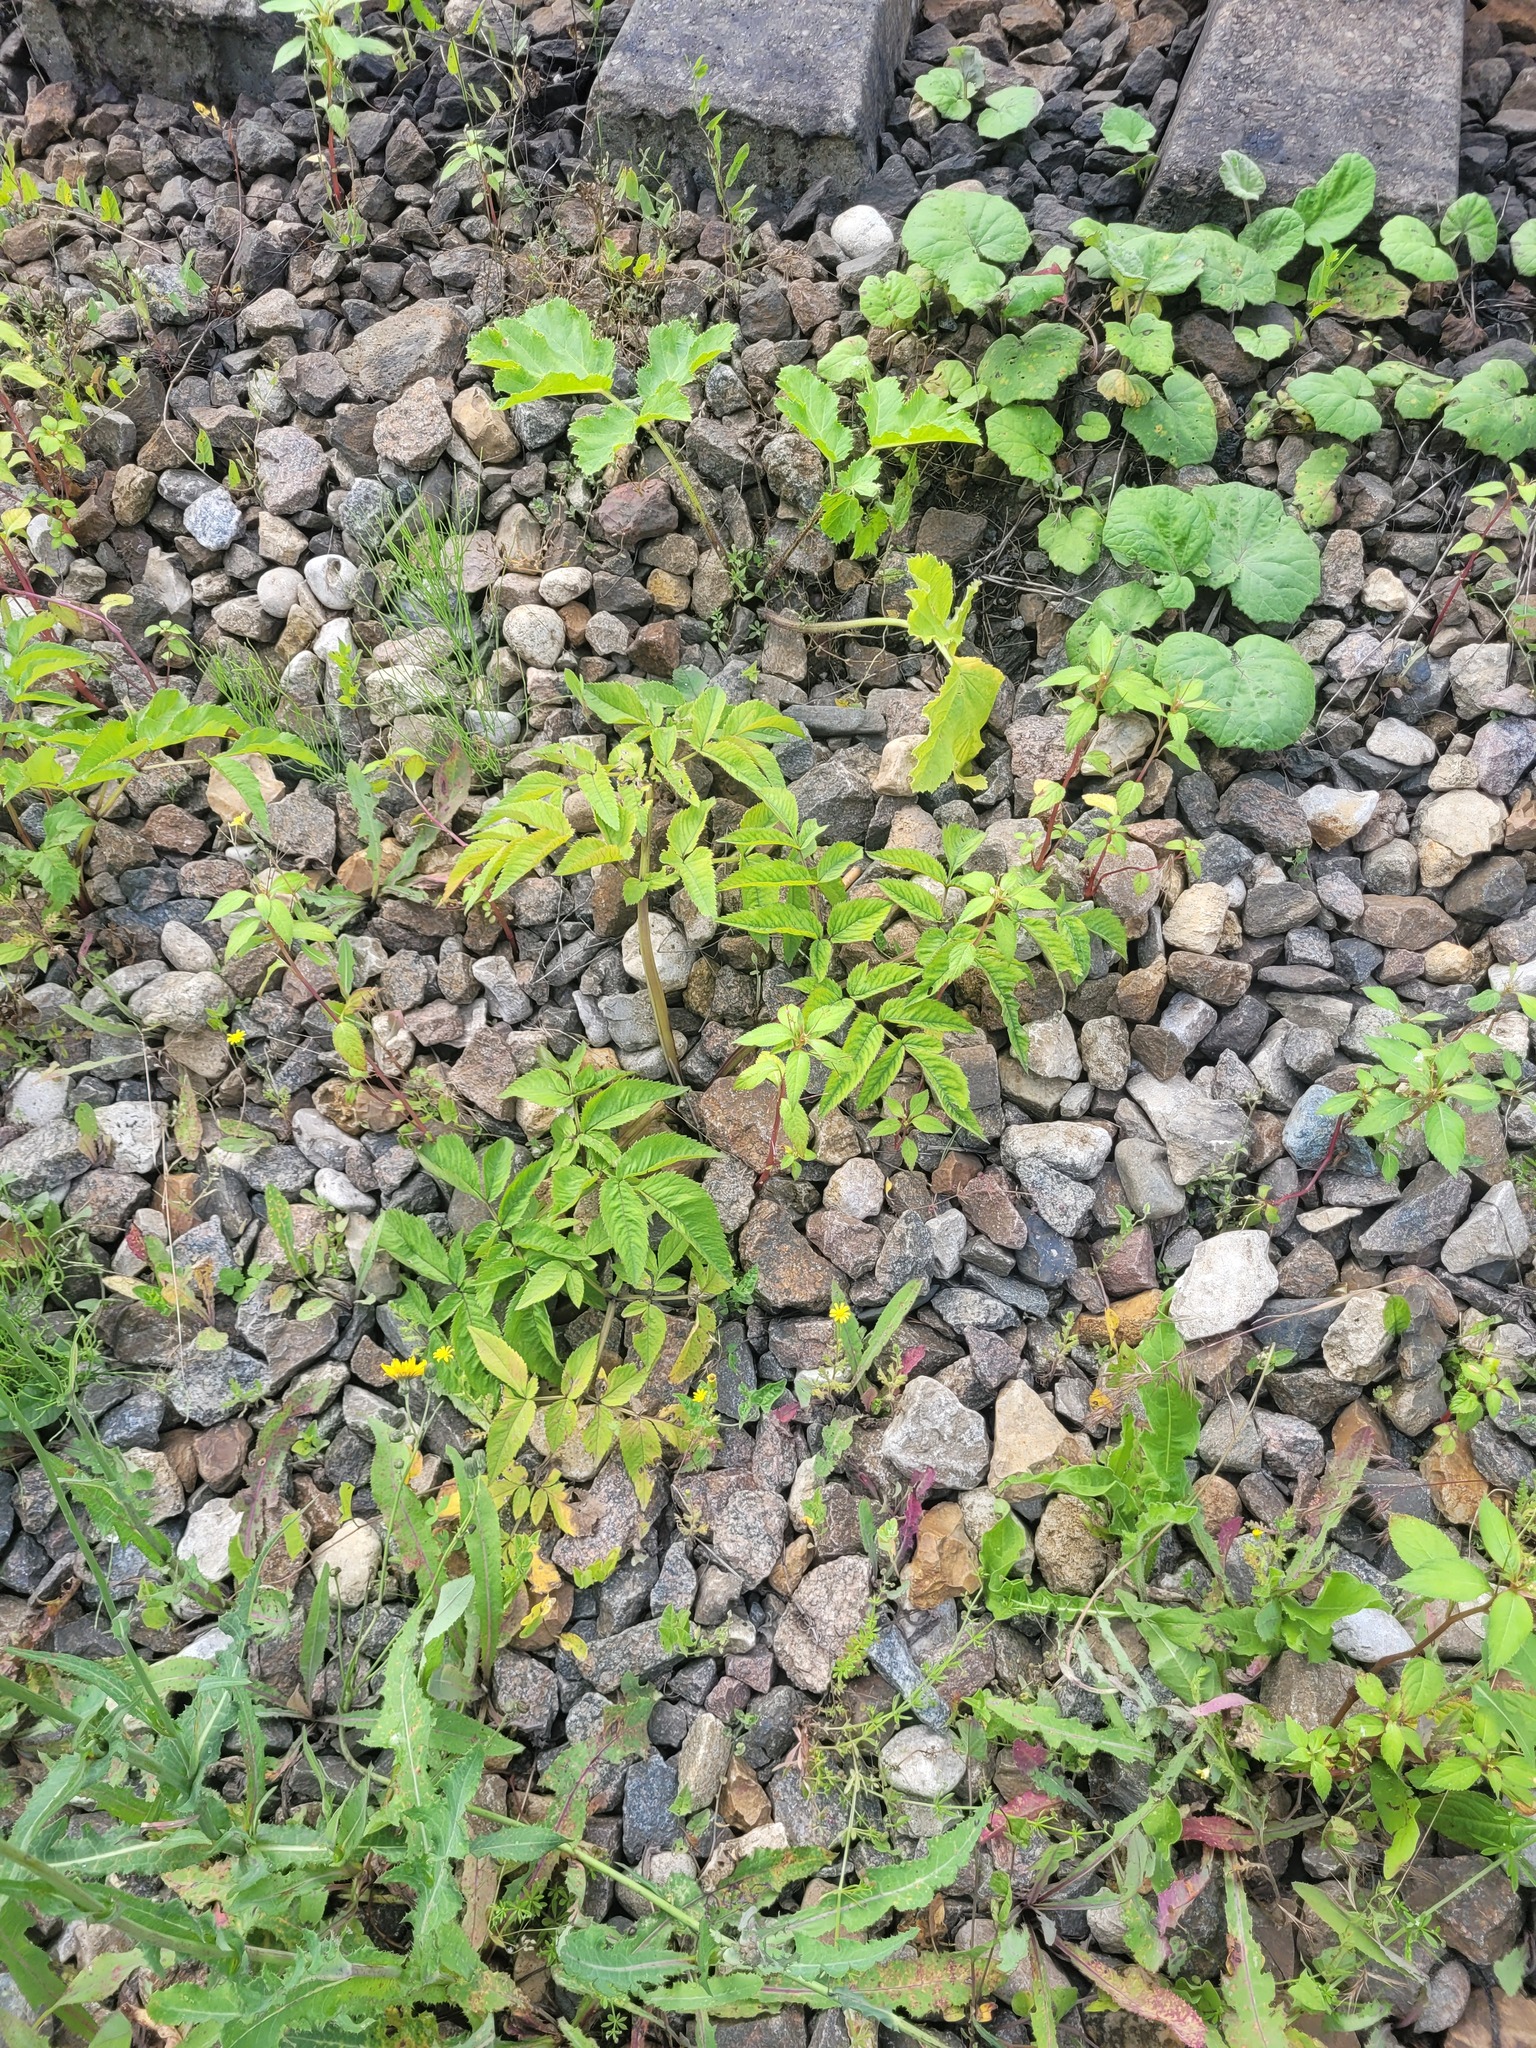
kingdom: Plantae
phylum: Tracheophyta
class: Magnoliopsida
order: Apiales
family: Apiaceae
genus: Angelica
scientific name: Angelica sylvestris
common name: Wild angelica
